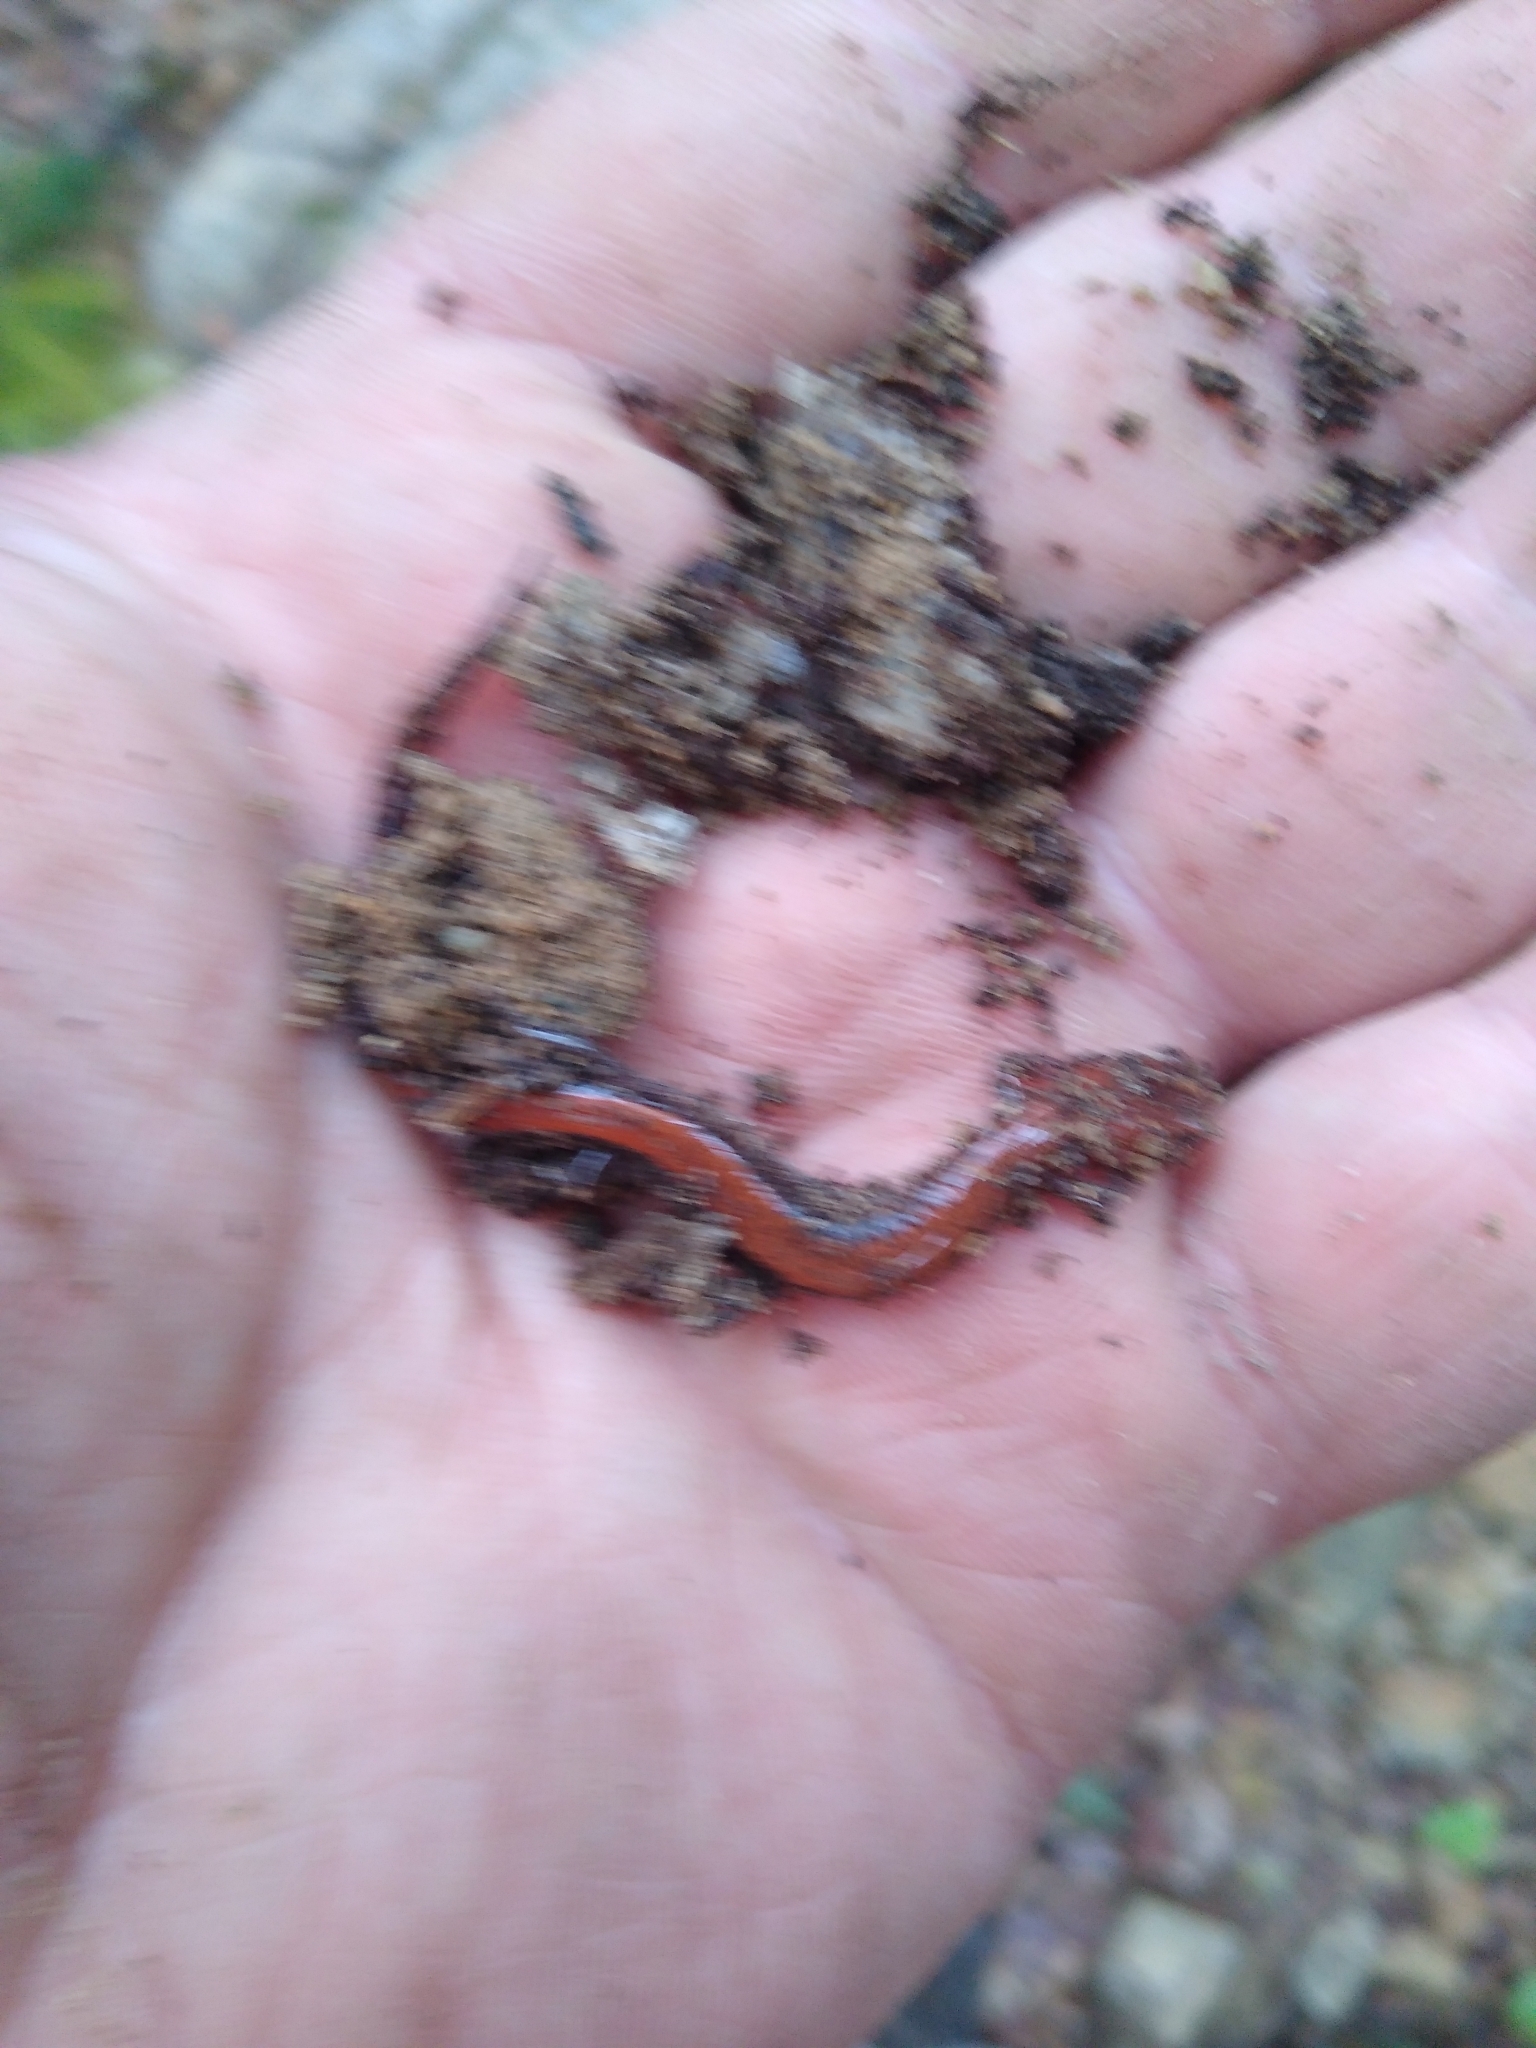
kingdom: Animalia
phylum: Chordata
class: Amphibia
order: Caudata
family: Plethodontidae
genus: Plethodon
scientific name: Plethodon cinereus
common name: Redback salamander
